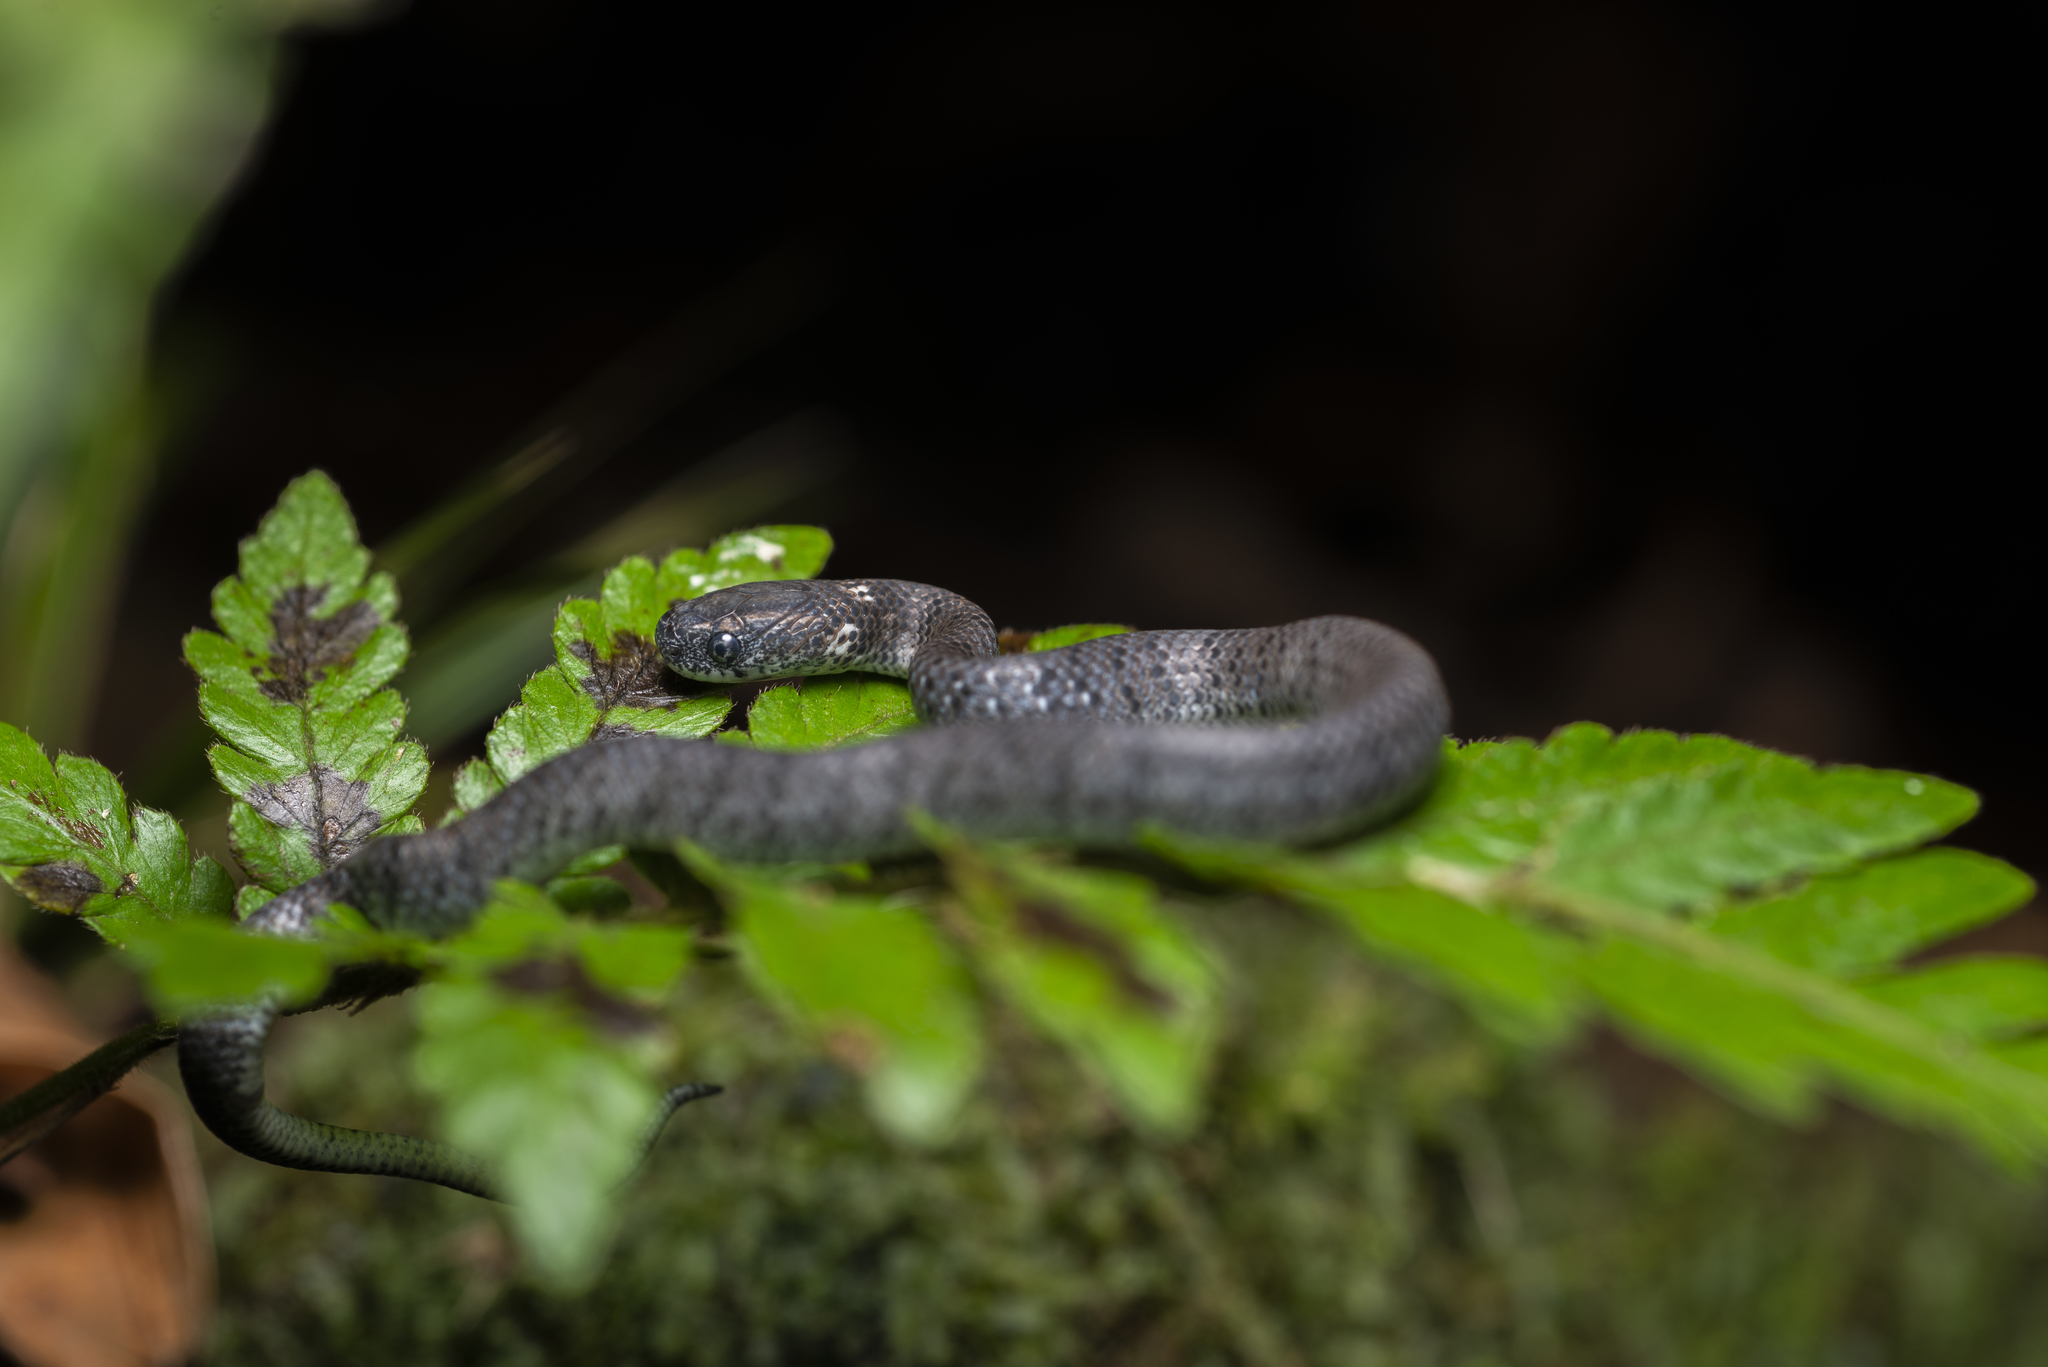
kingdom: Animalia
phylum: Chordata
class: Squamata
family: Pareidae
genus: Pareas
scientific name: Pareas margaritophorus
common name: Mountain slug snake
